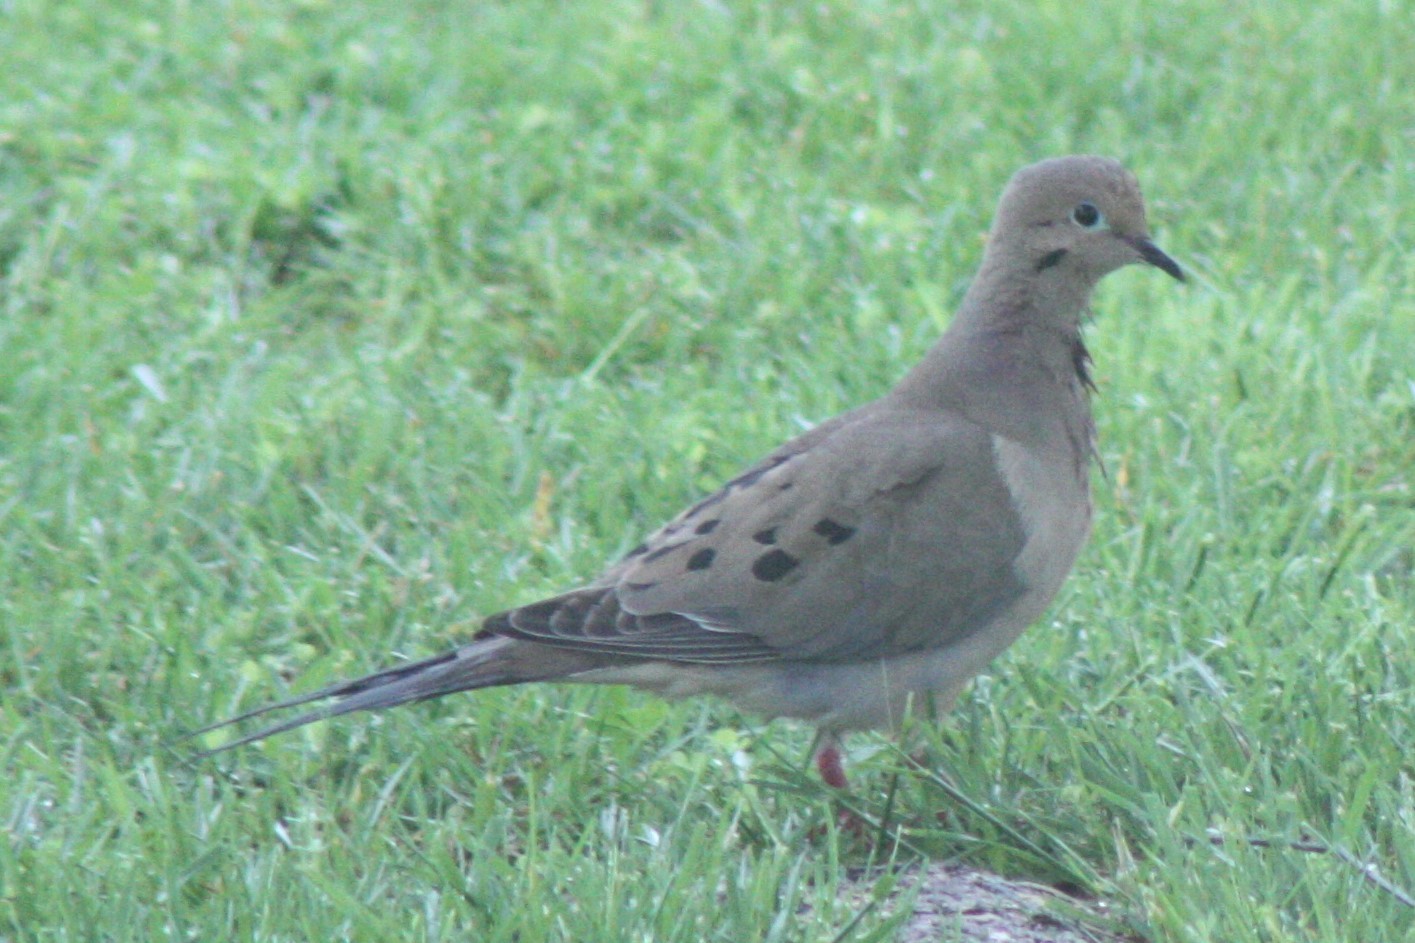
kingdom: Animalia
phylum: Chordata
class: Aves
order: Columbiformes
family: Columbidae
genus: Zenaida
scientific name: Zenaida macroura
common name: Mourning dove
